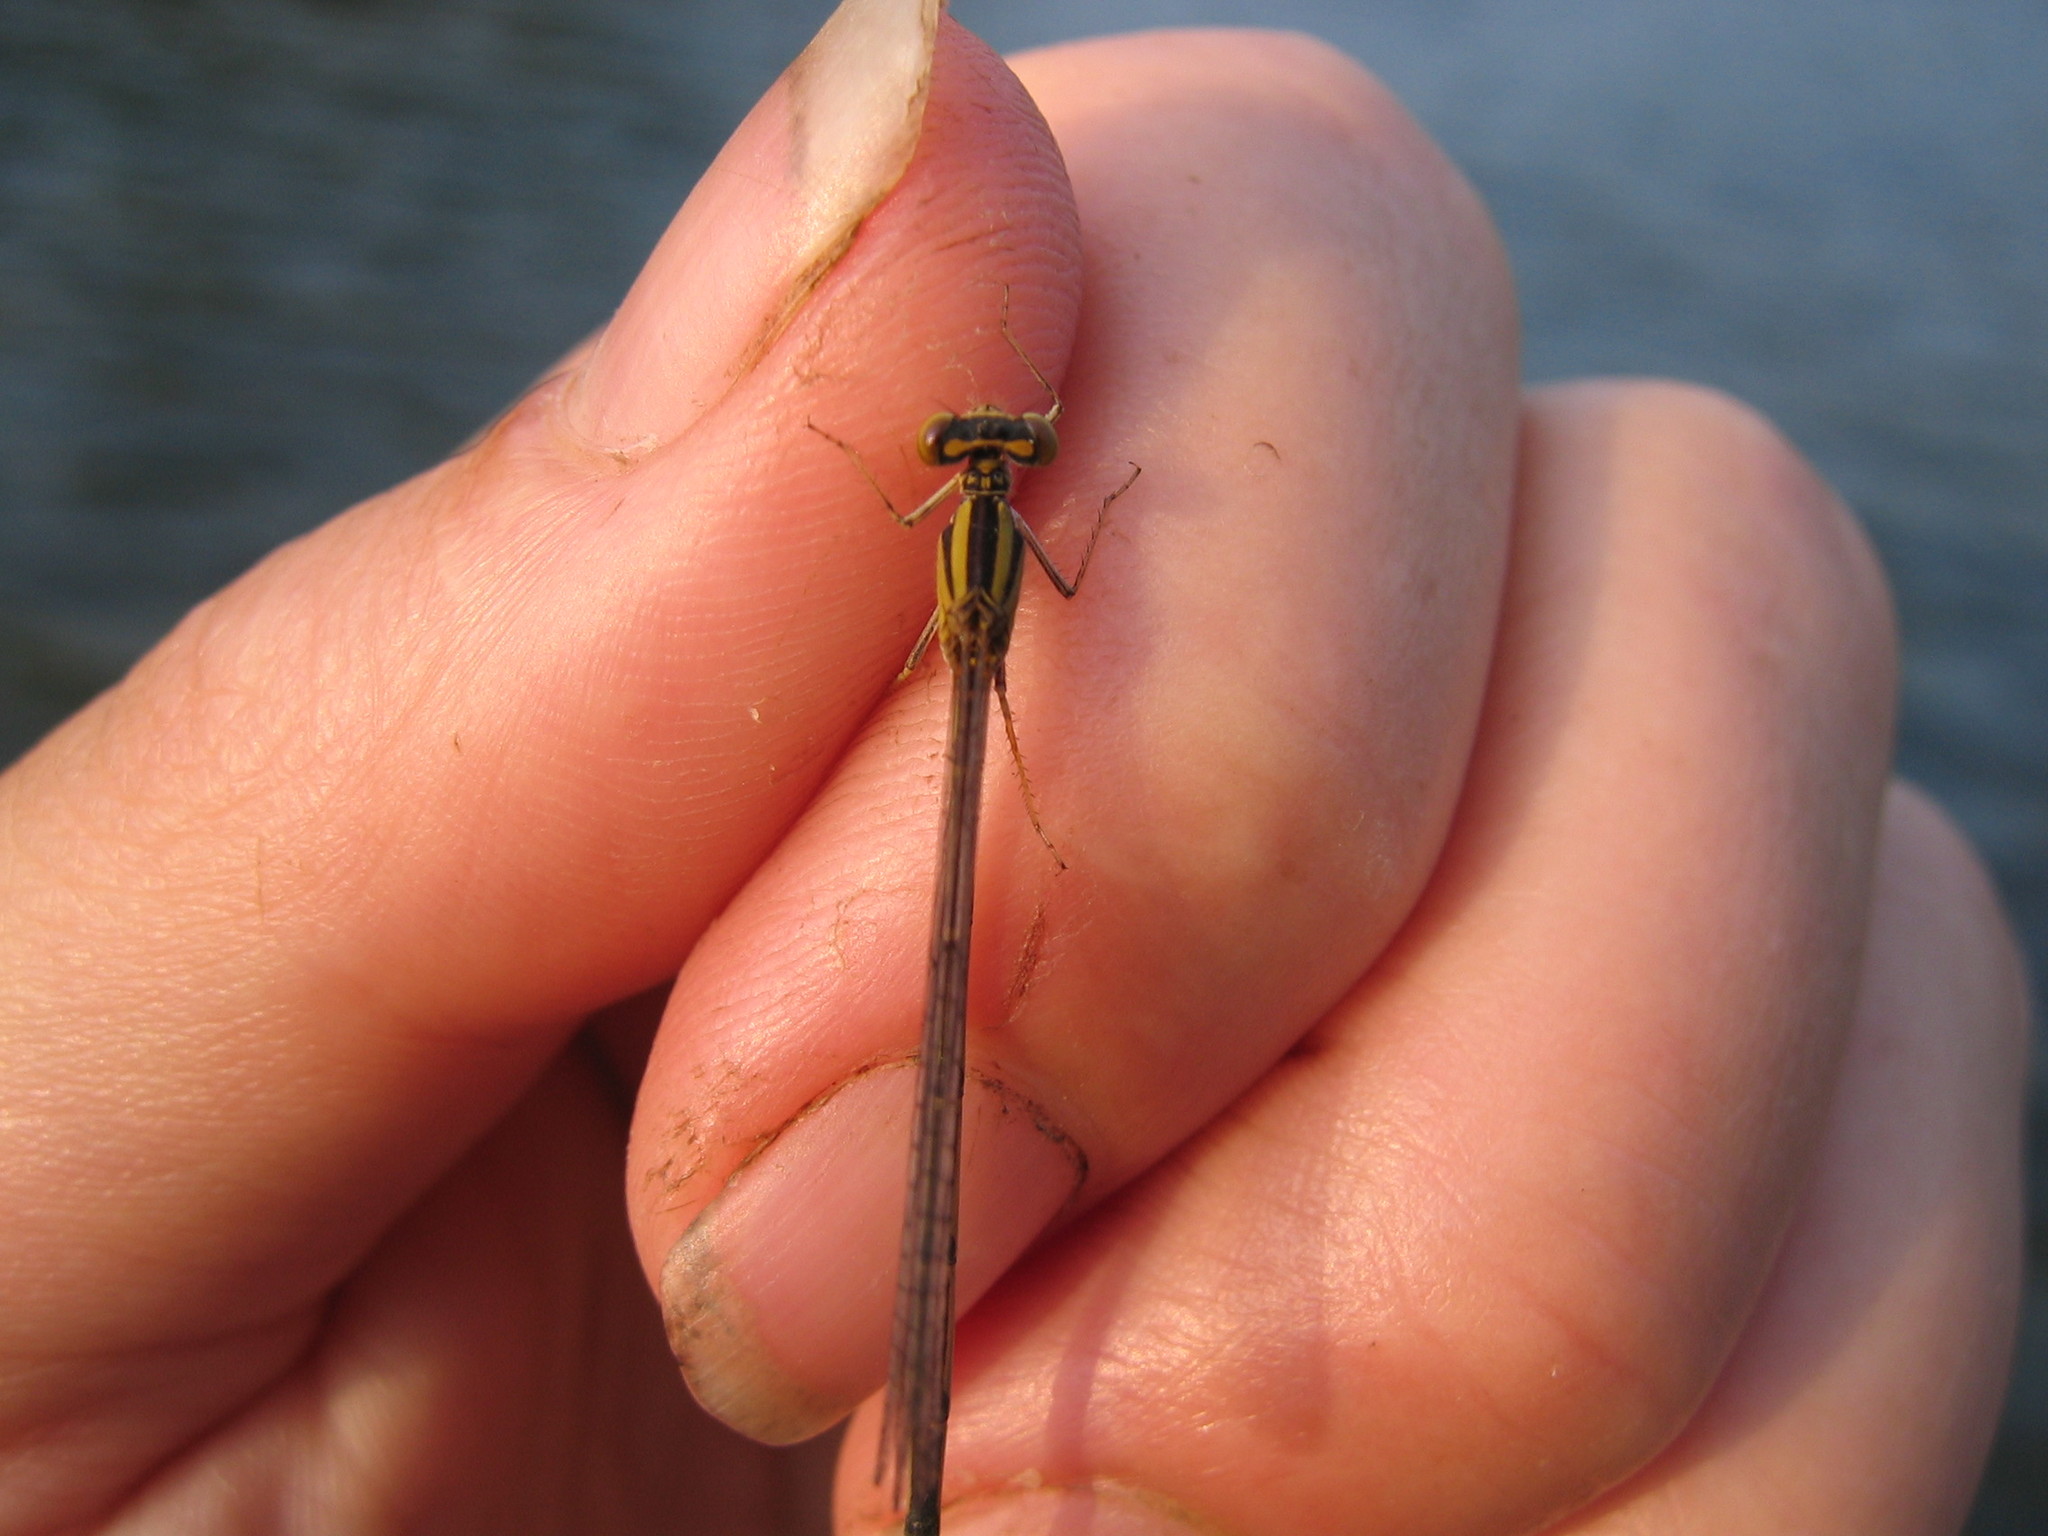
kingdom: Animalia
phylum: Arthropoda
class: Insecta
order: Odonata
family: Coenagrionidae
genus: Enallagma
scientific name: Enallagma vesperum
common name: Vesper bluet
